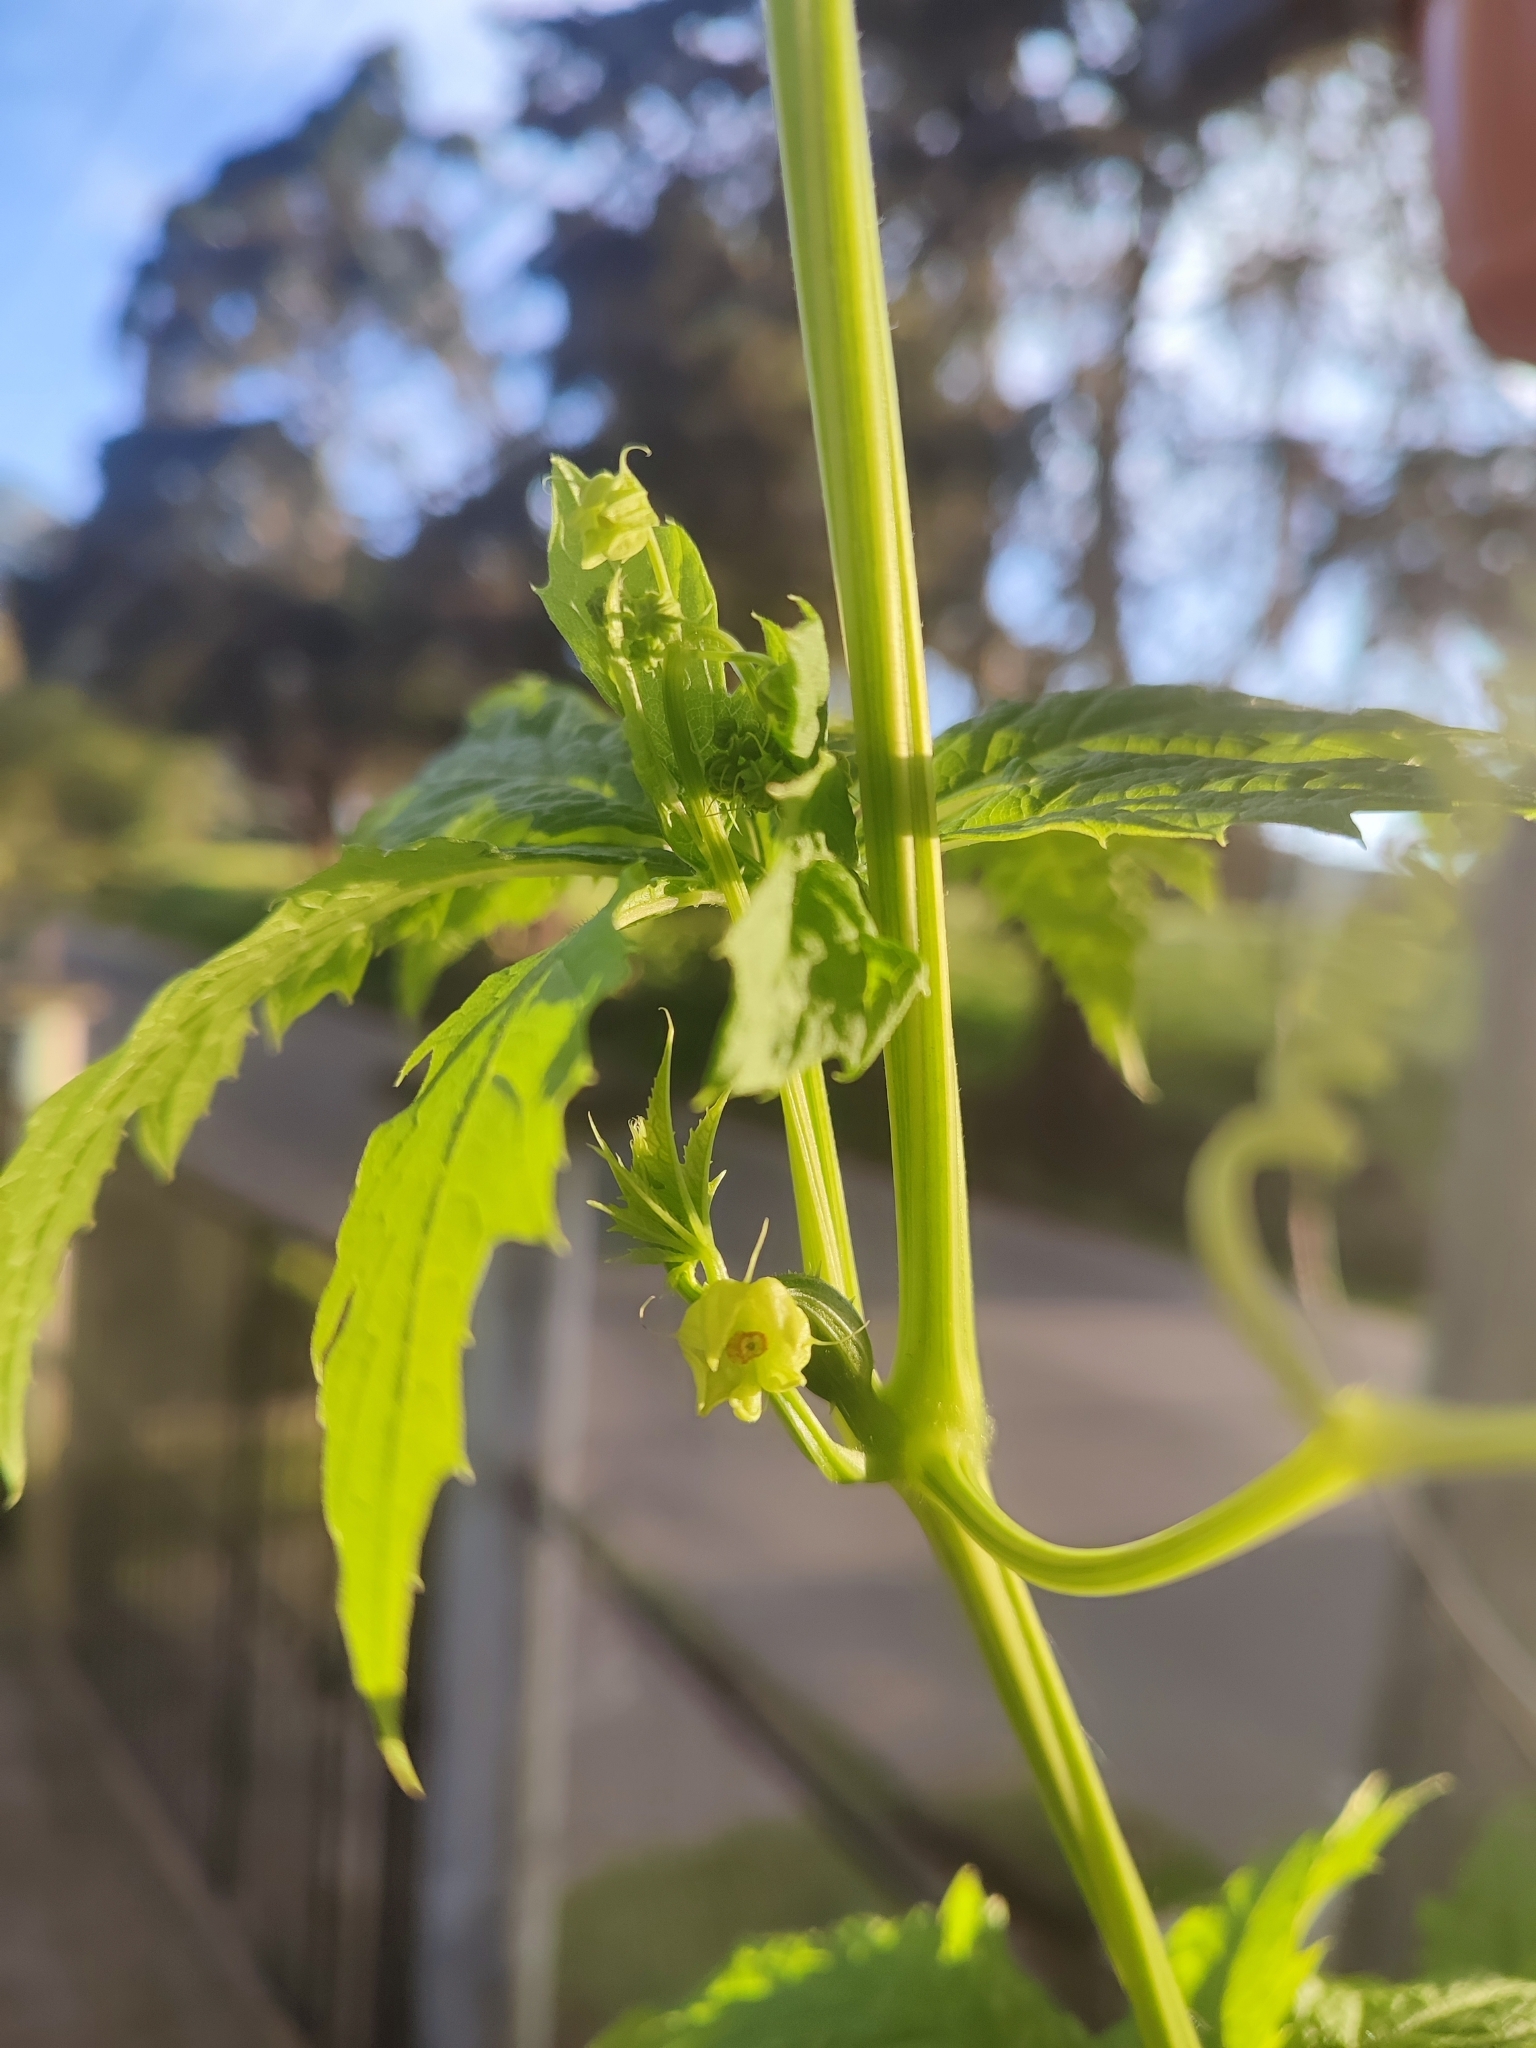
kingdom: Plantae
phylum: Tracheophyta
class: Magnoliopsida
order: Cucurbitales
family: Cucurbitaceae
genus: Cyclanthera
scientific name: Cyclanthera pedata
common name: Slipper goard
